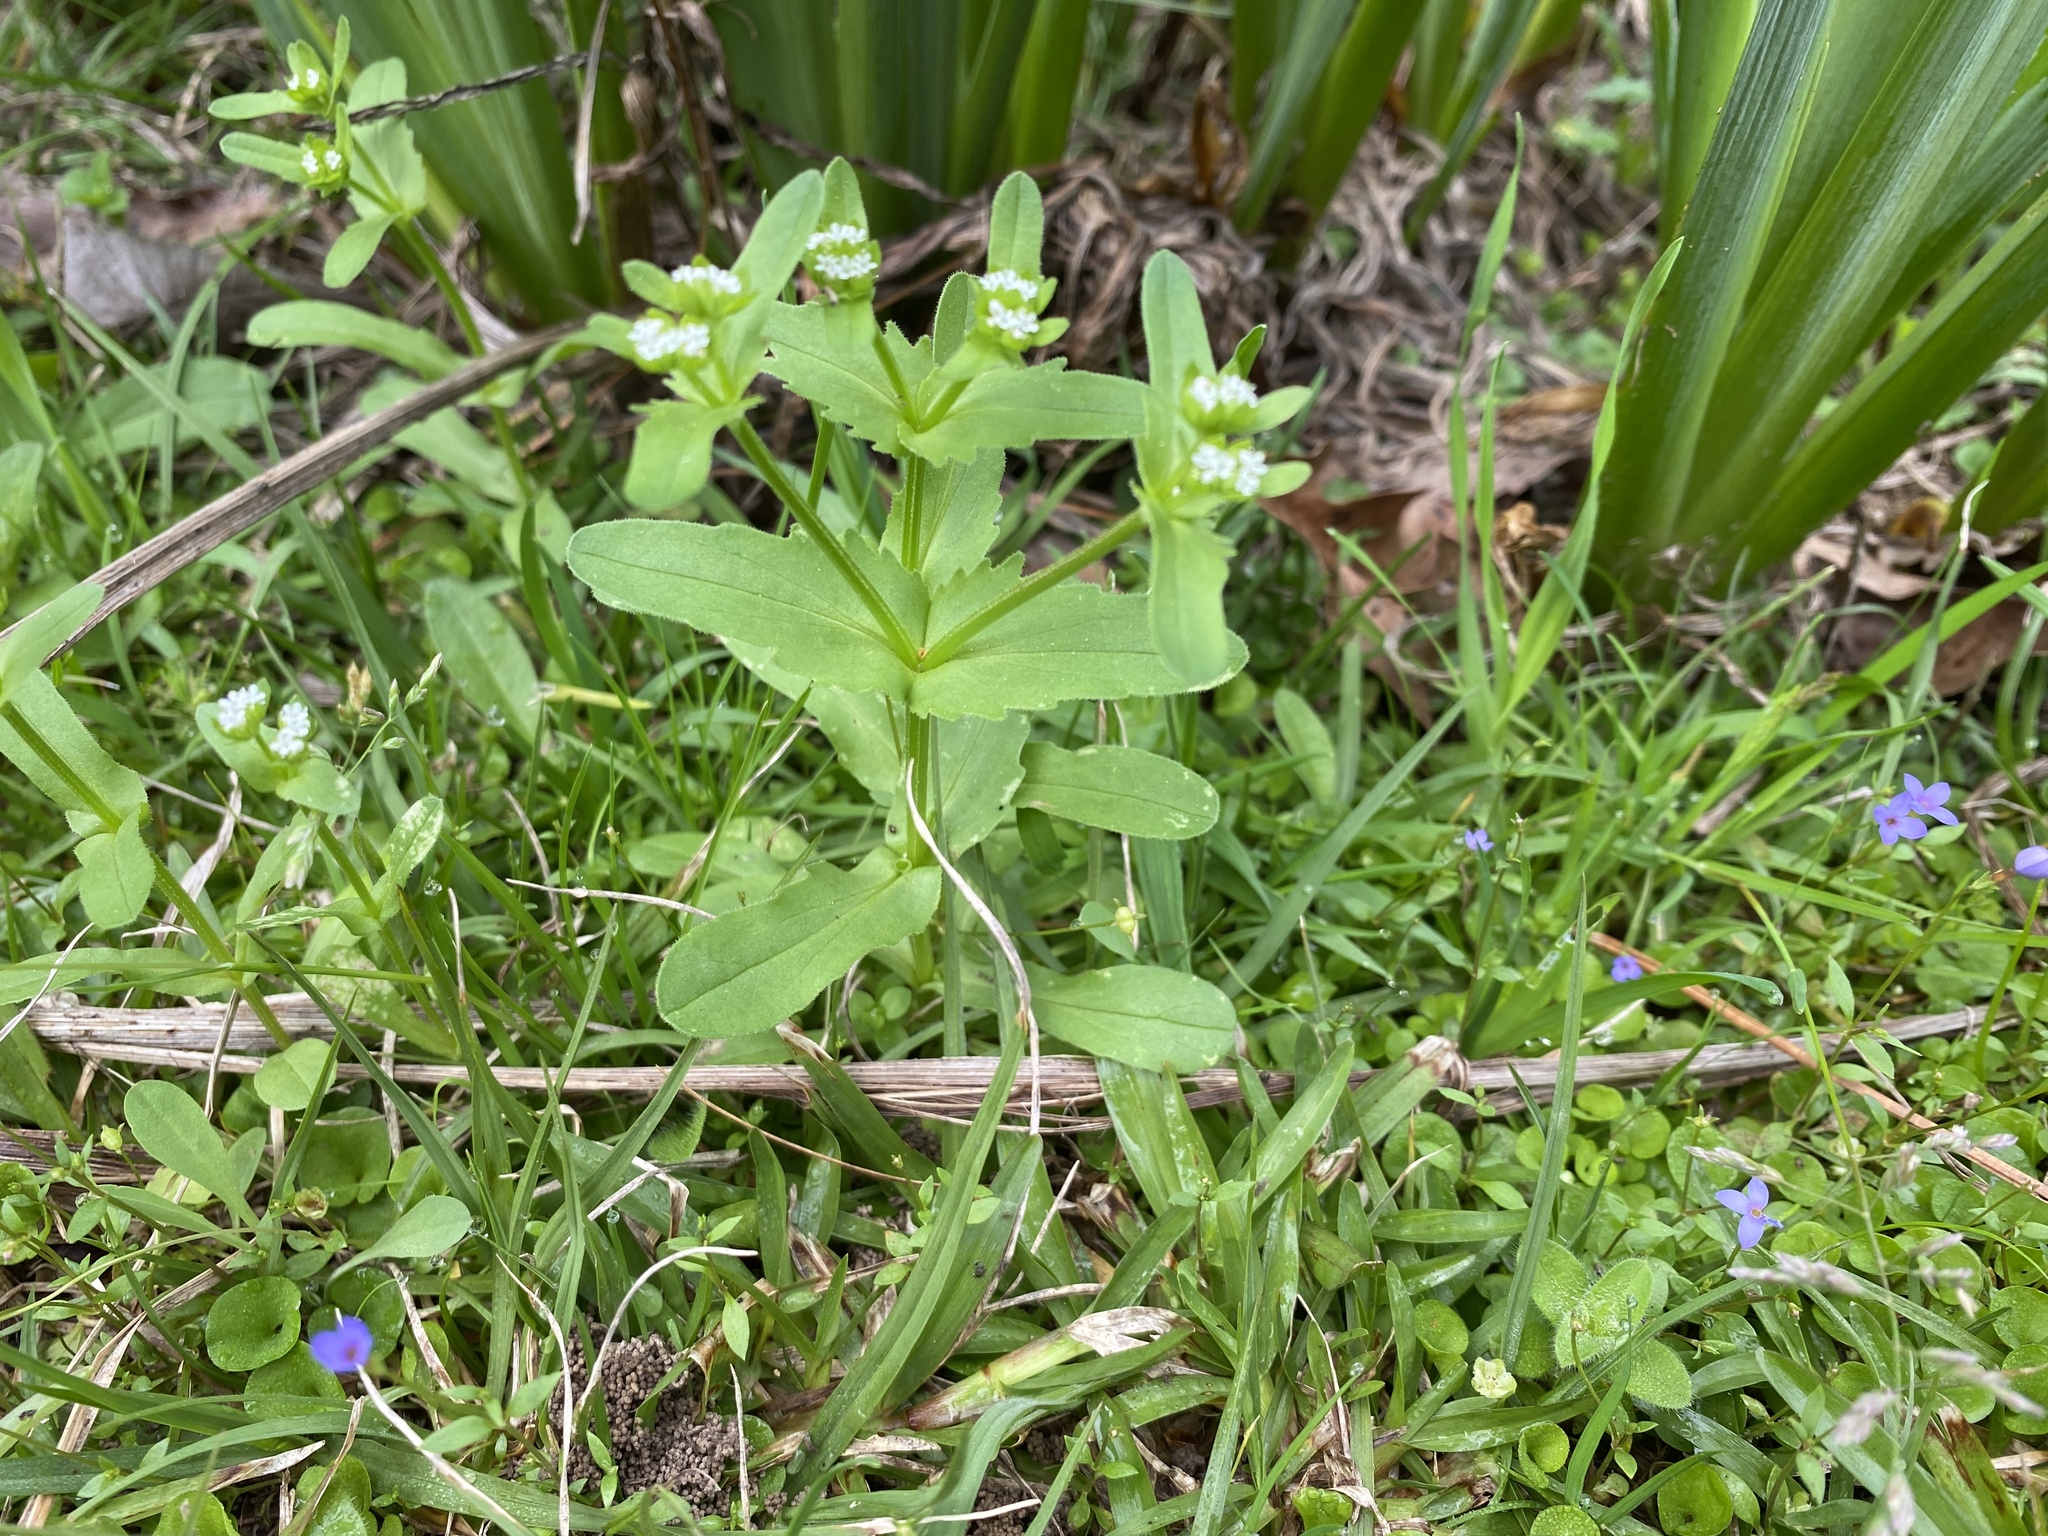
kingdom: Plantae
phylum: Tracheophyta
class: Magnoliopsida
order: Dipsacales
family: Caprifoliaceae
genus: Valerianella
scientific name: Valerianella radiata
